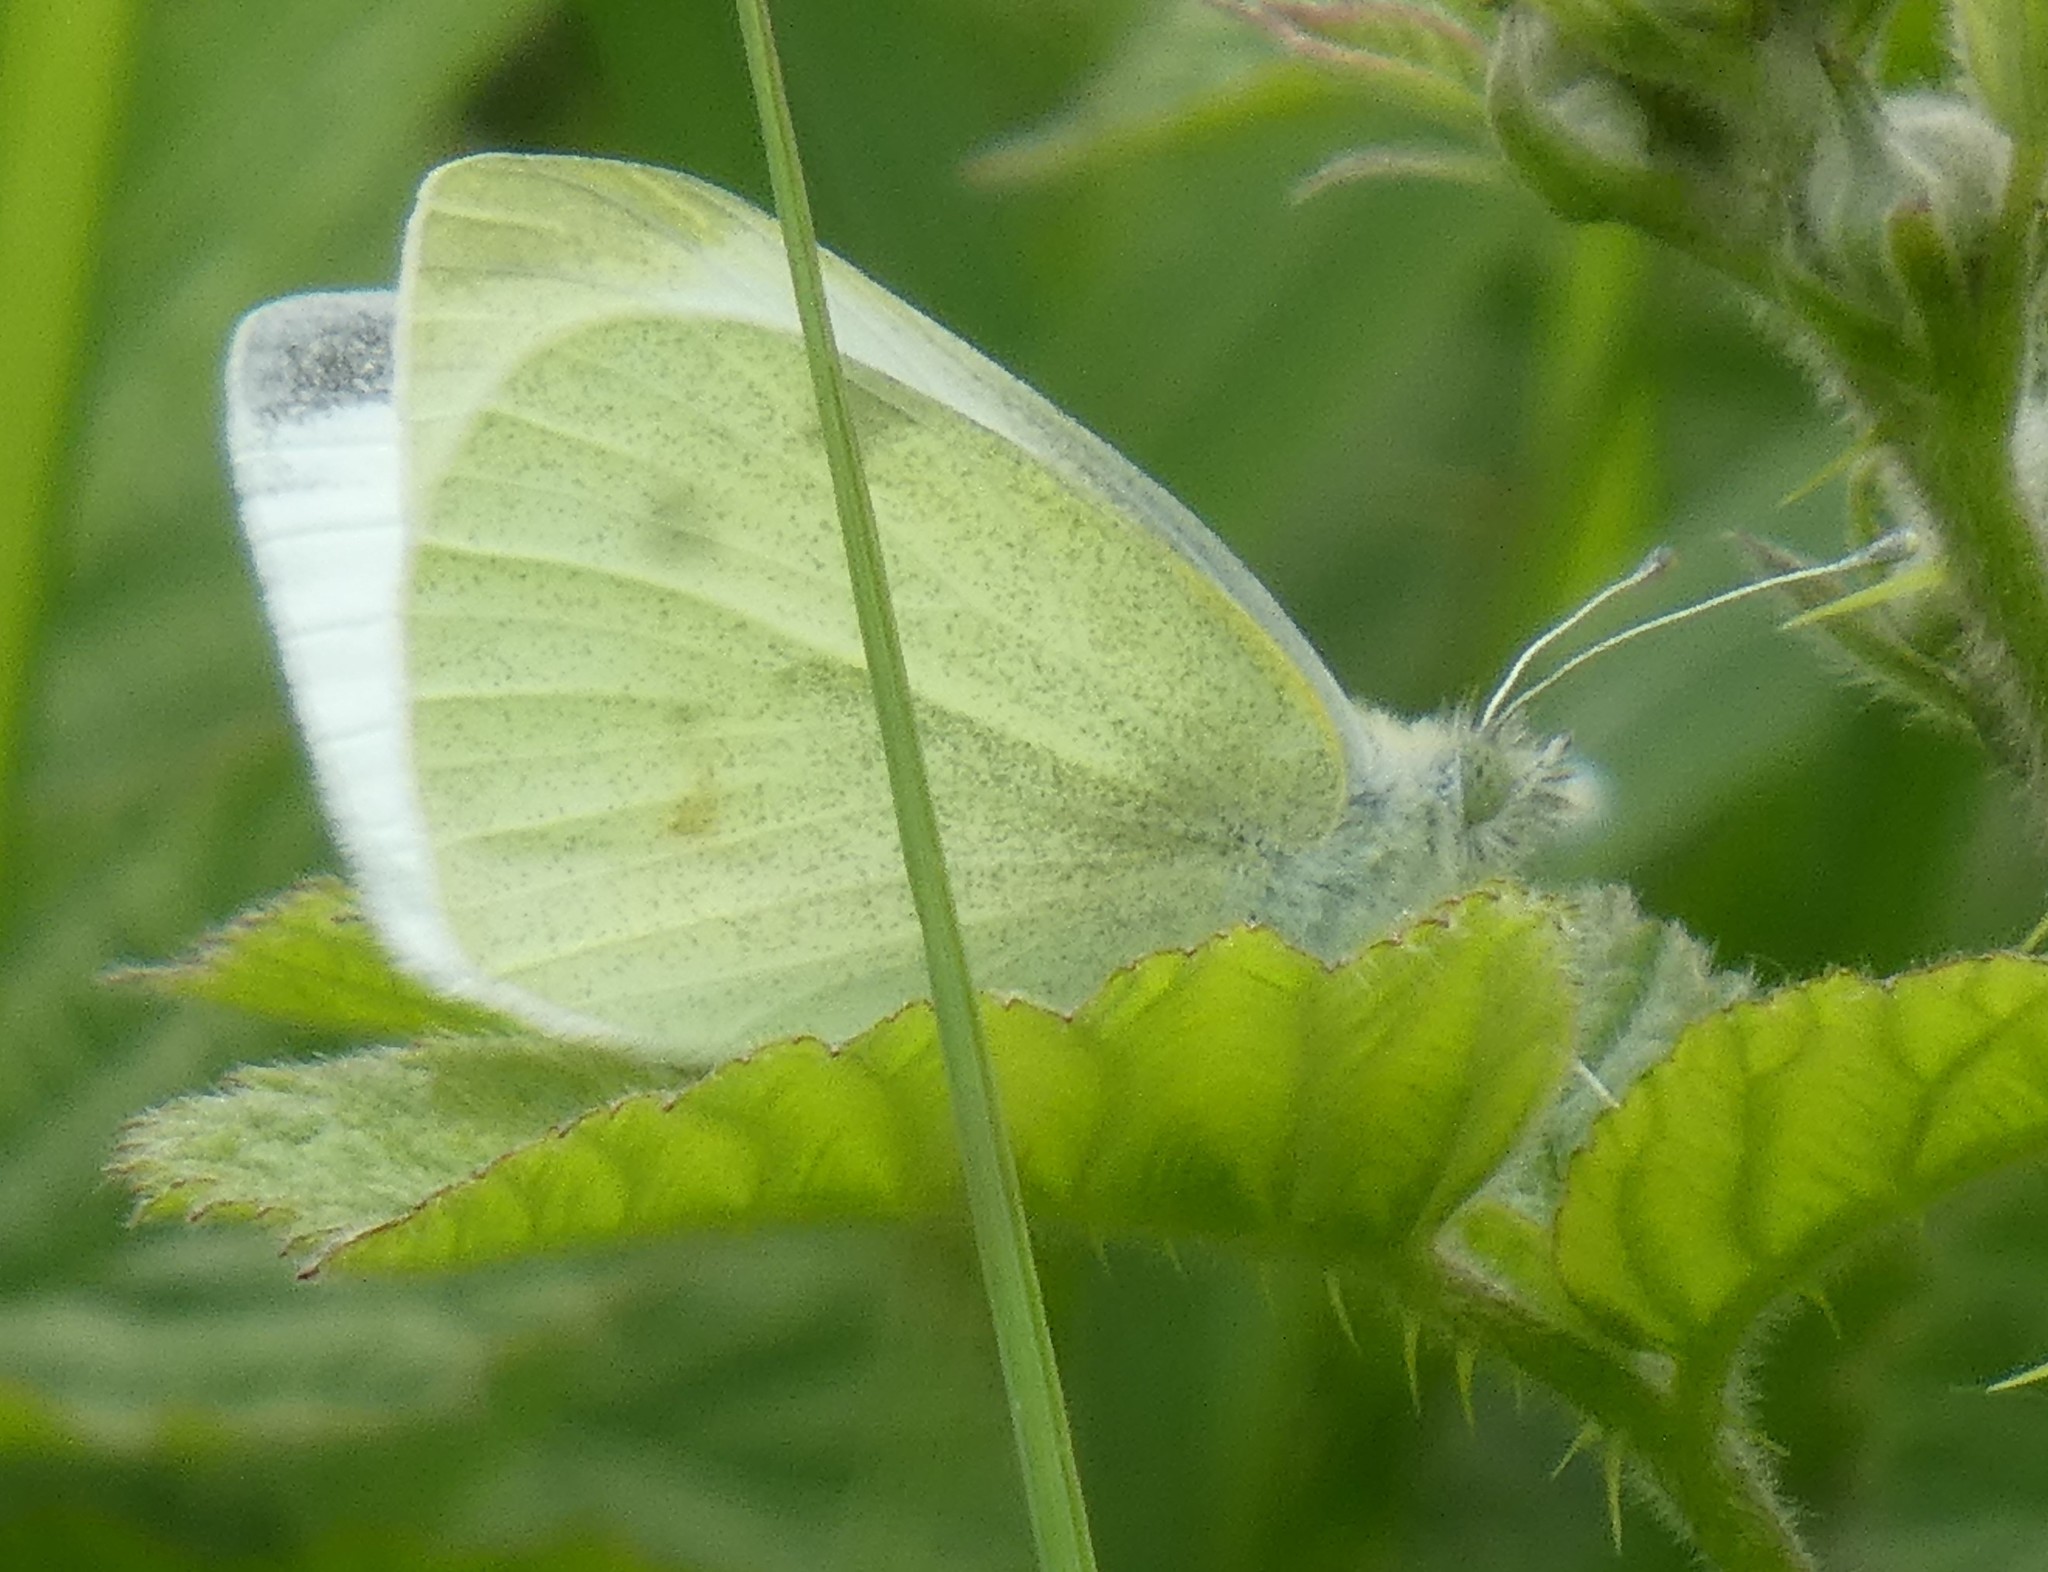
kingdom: Animalia
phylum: Arthropoda
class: Insecta
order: Lepidoptera
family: Pieridae
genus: Pieris
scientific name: Pieris rapae
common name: Small white
